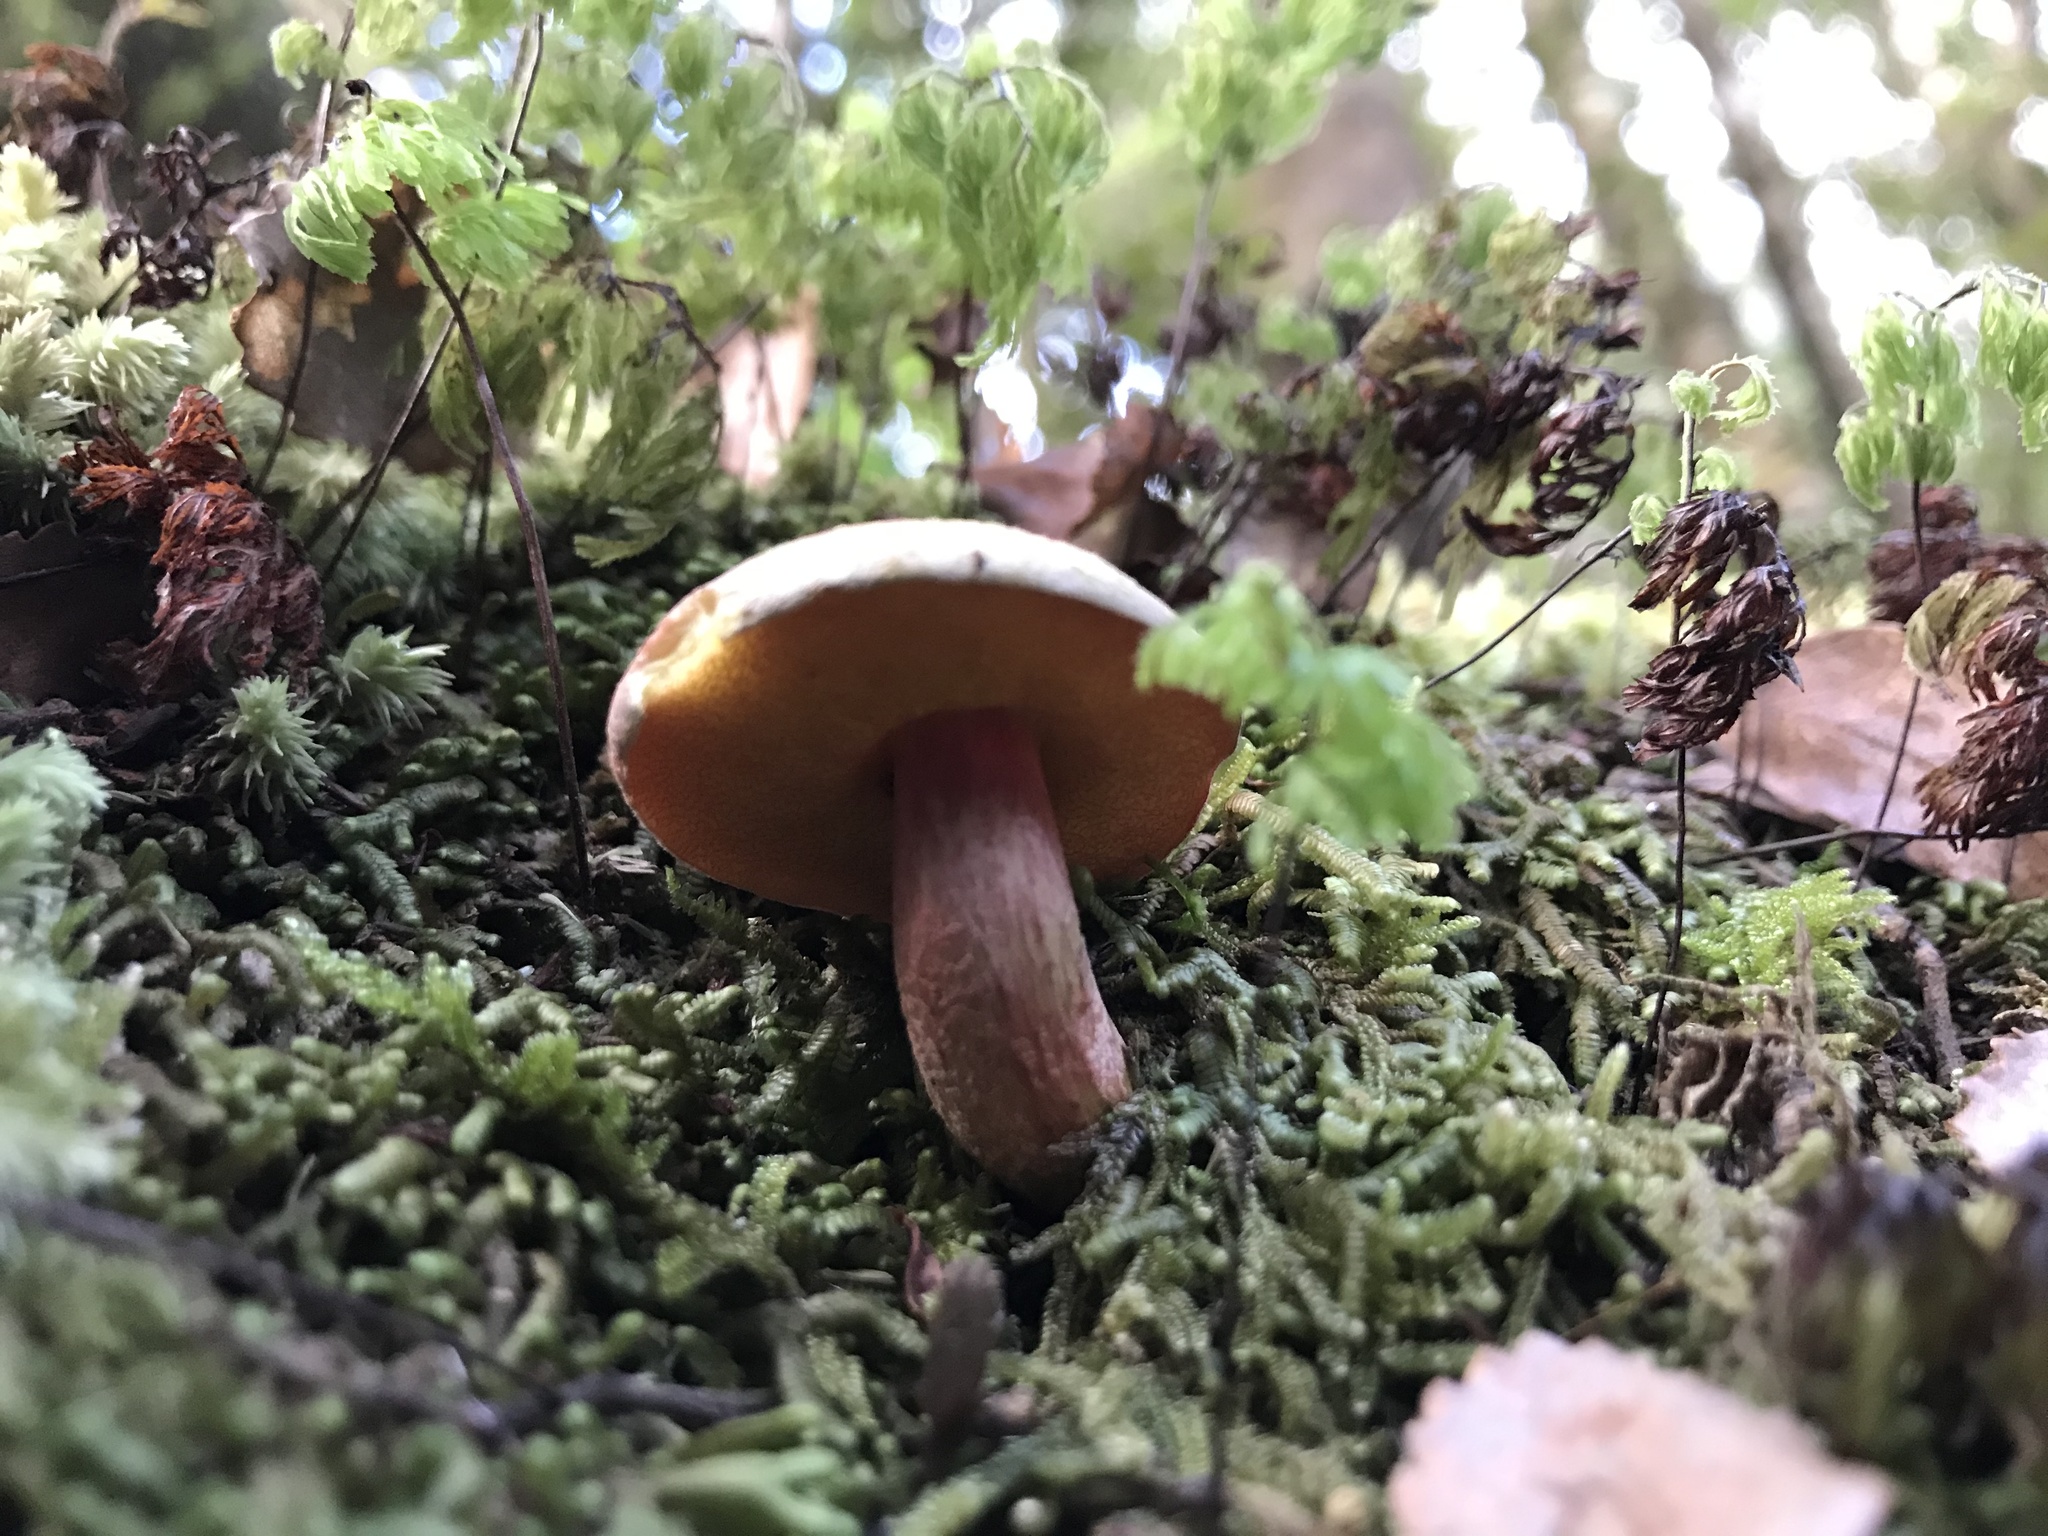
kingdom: Fungi
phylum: Basidiomycota
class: Agaricomycetes
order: Boletales
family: Boletaceae
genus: Xerocomus
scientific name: Xerocomus leptospermi
